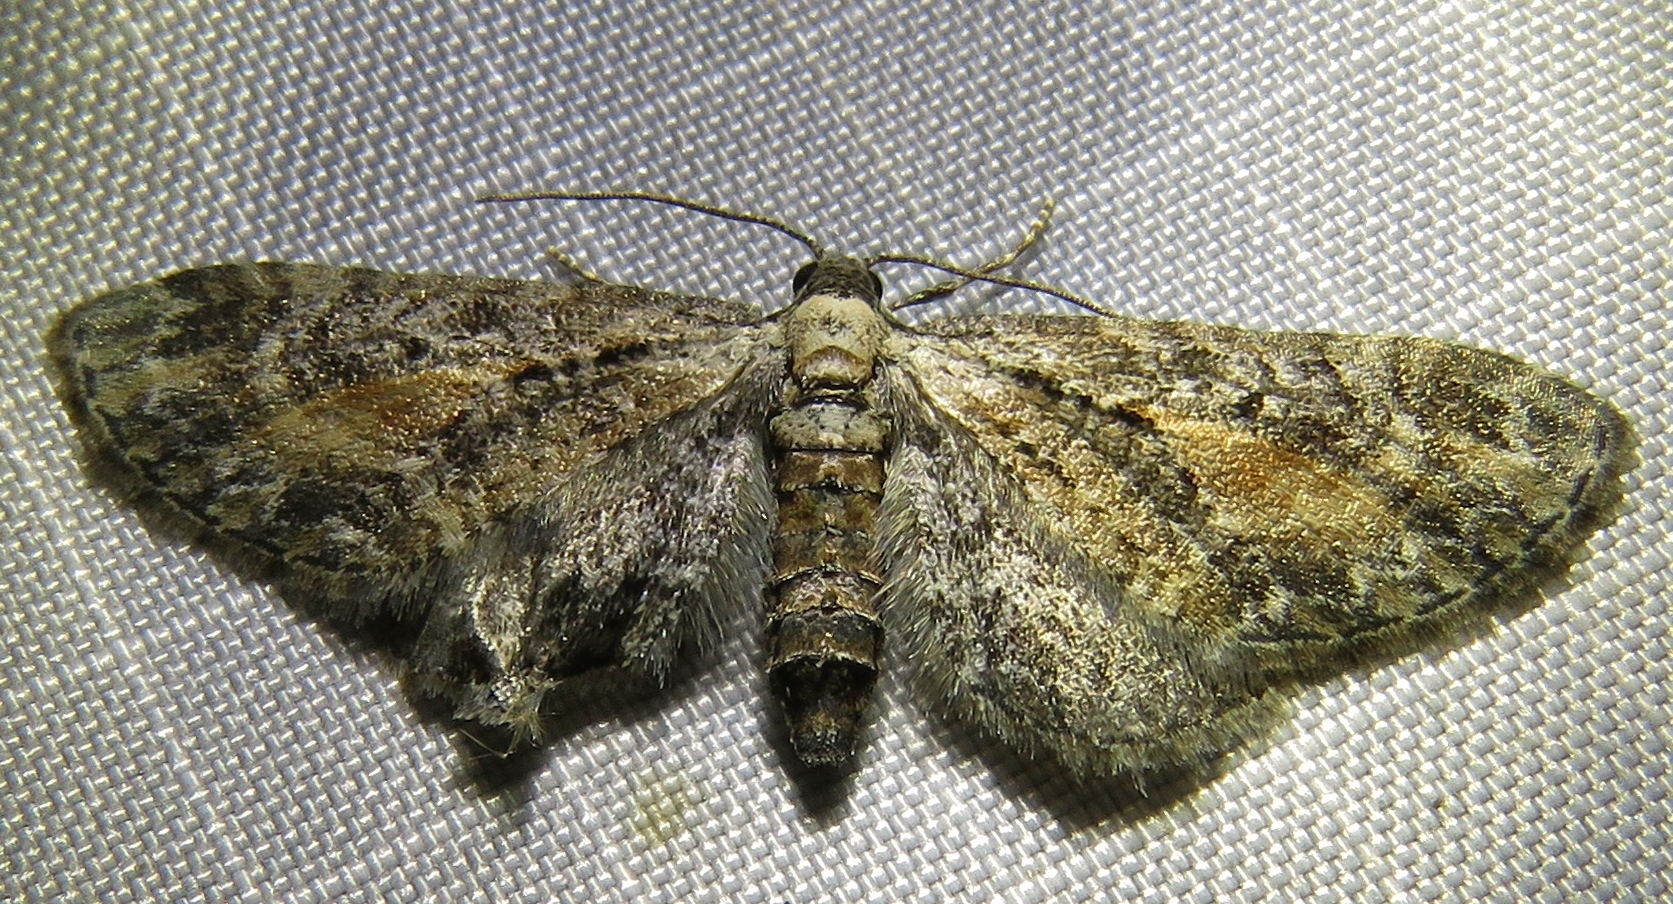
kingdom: Animalia
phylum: Arthropoda
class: Insecta
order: Lepidoptera
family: Geometridae
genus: Eupithecia
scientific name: Eupithecia icterata
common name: Tawny speckled pug
